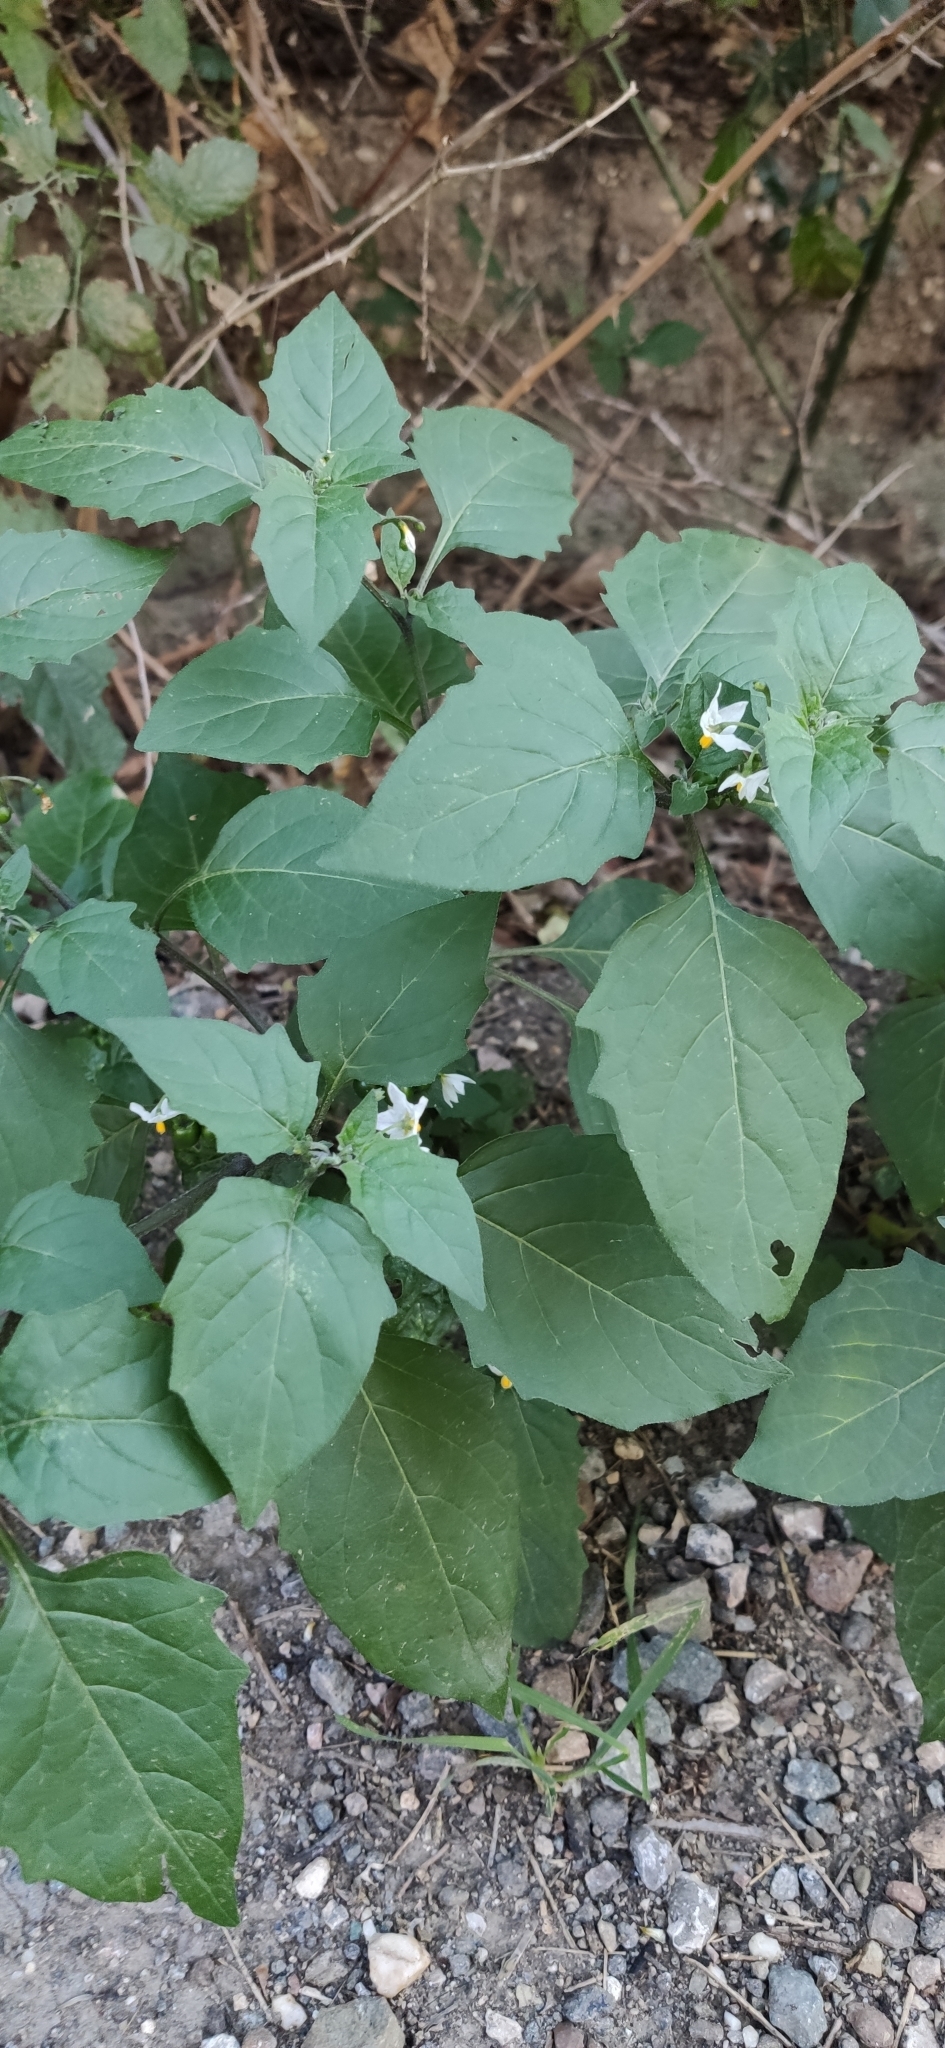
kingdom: Plantae
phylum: Tracheophyta
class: Magnoliopsida
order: Solanales
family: Solanaceae
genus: Solanum
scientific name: Solanum nigrum
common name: Black nightshade
